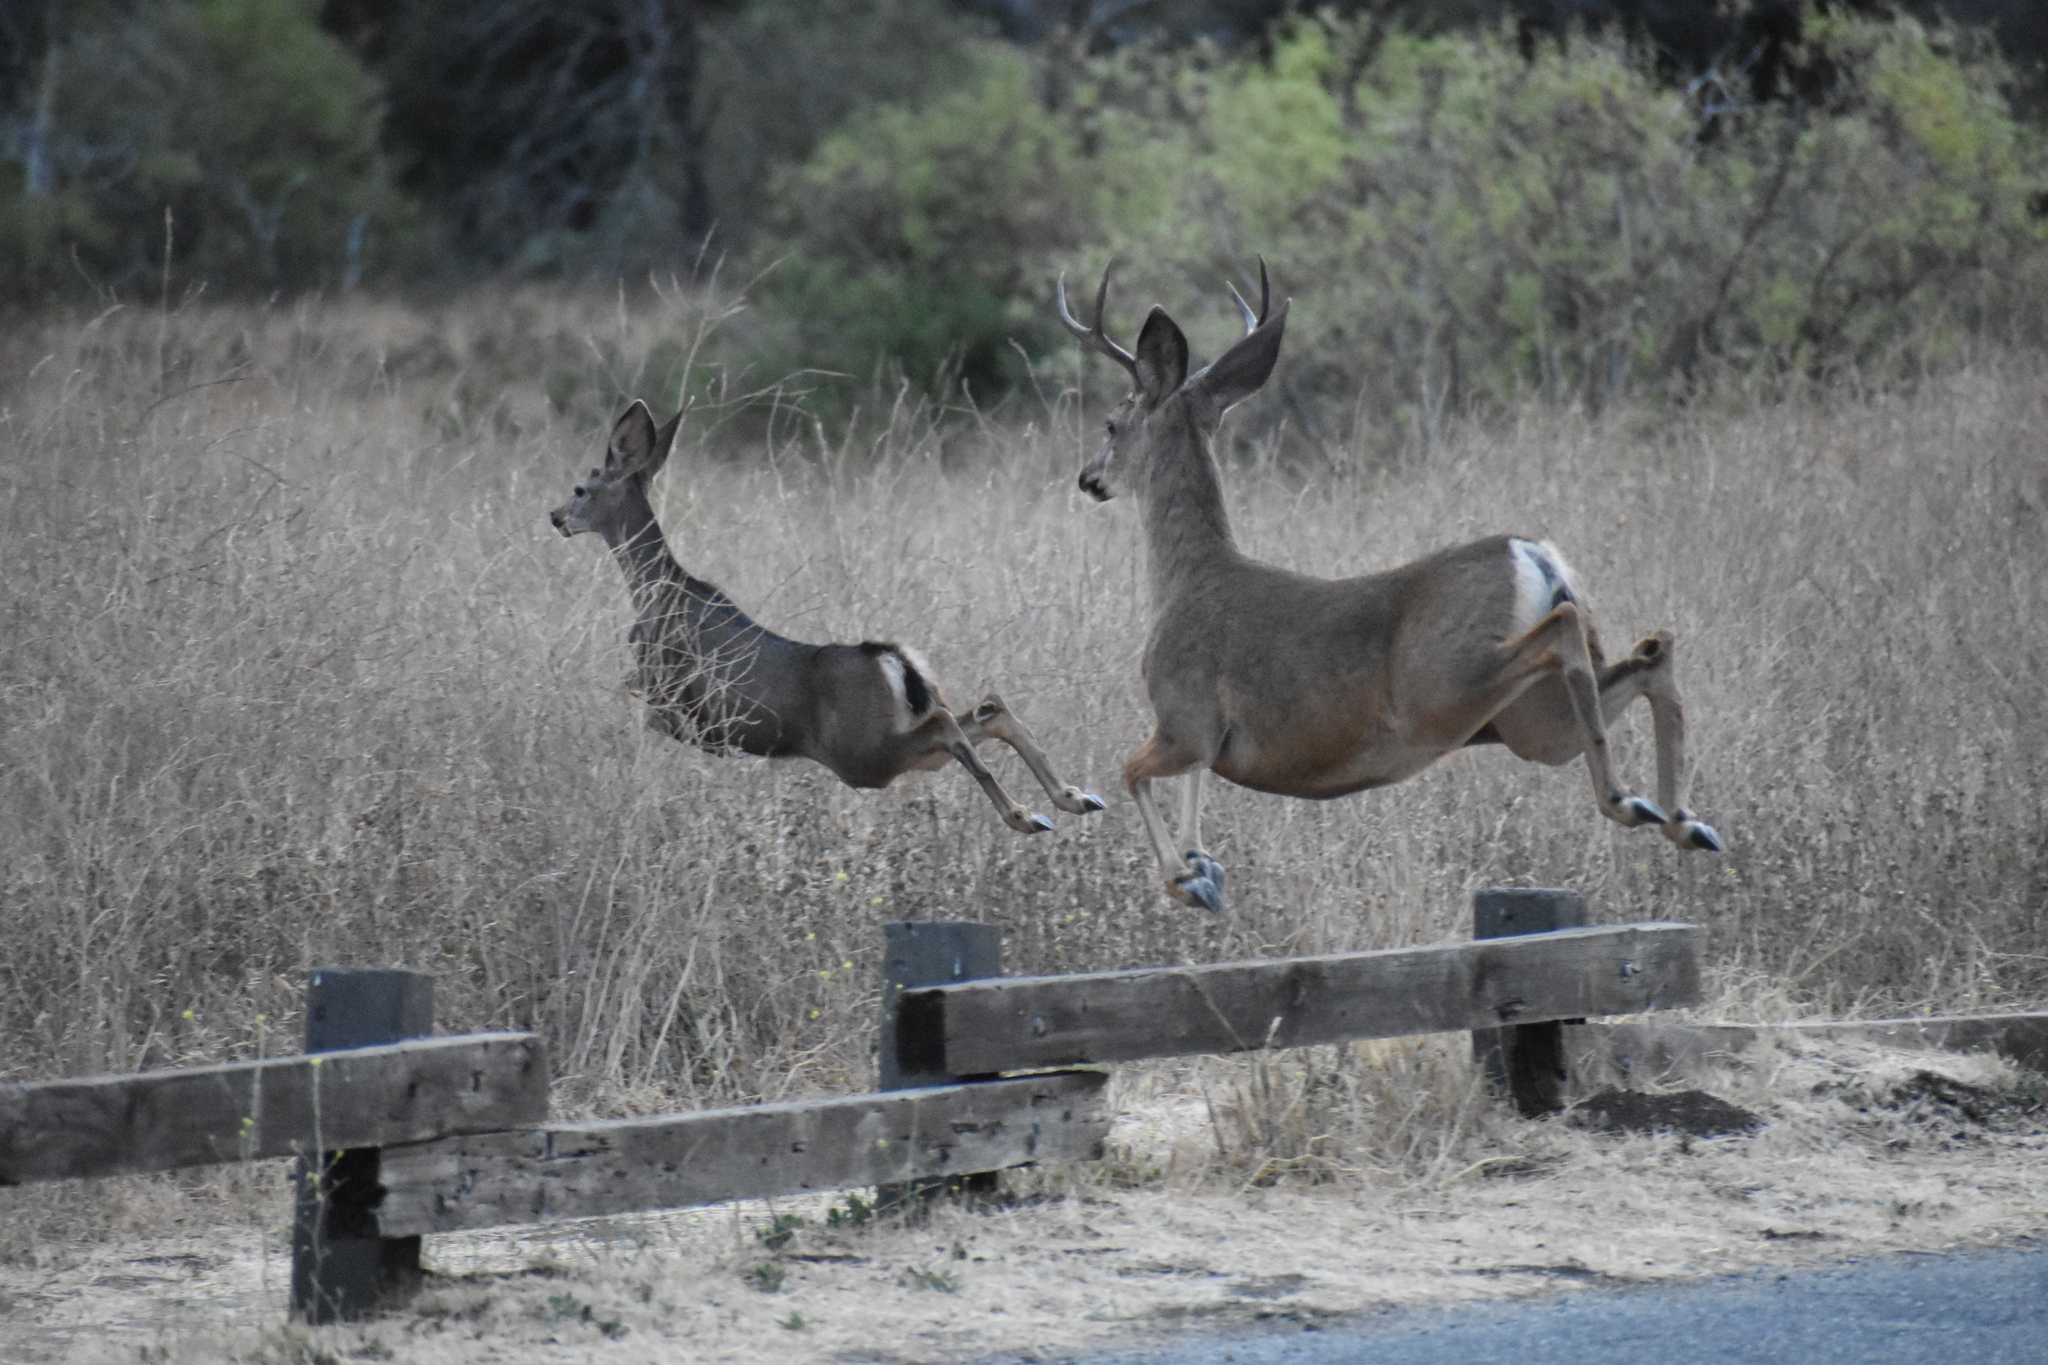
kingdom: Animalia
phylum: Chordata
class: Mammalia
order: Artiodactyla
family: Cervidae
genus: Odocoileus
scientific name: Odocoileus hemionus
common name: Mule deer
